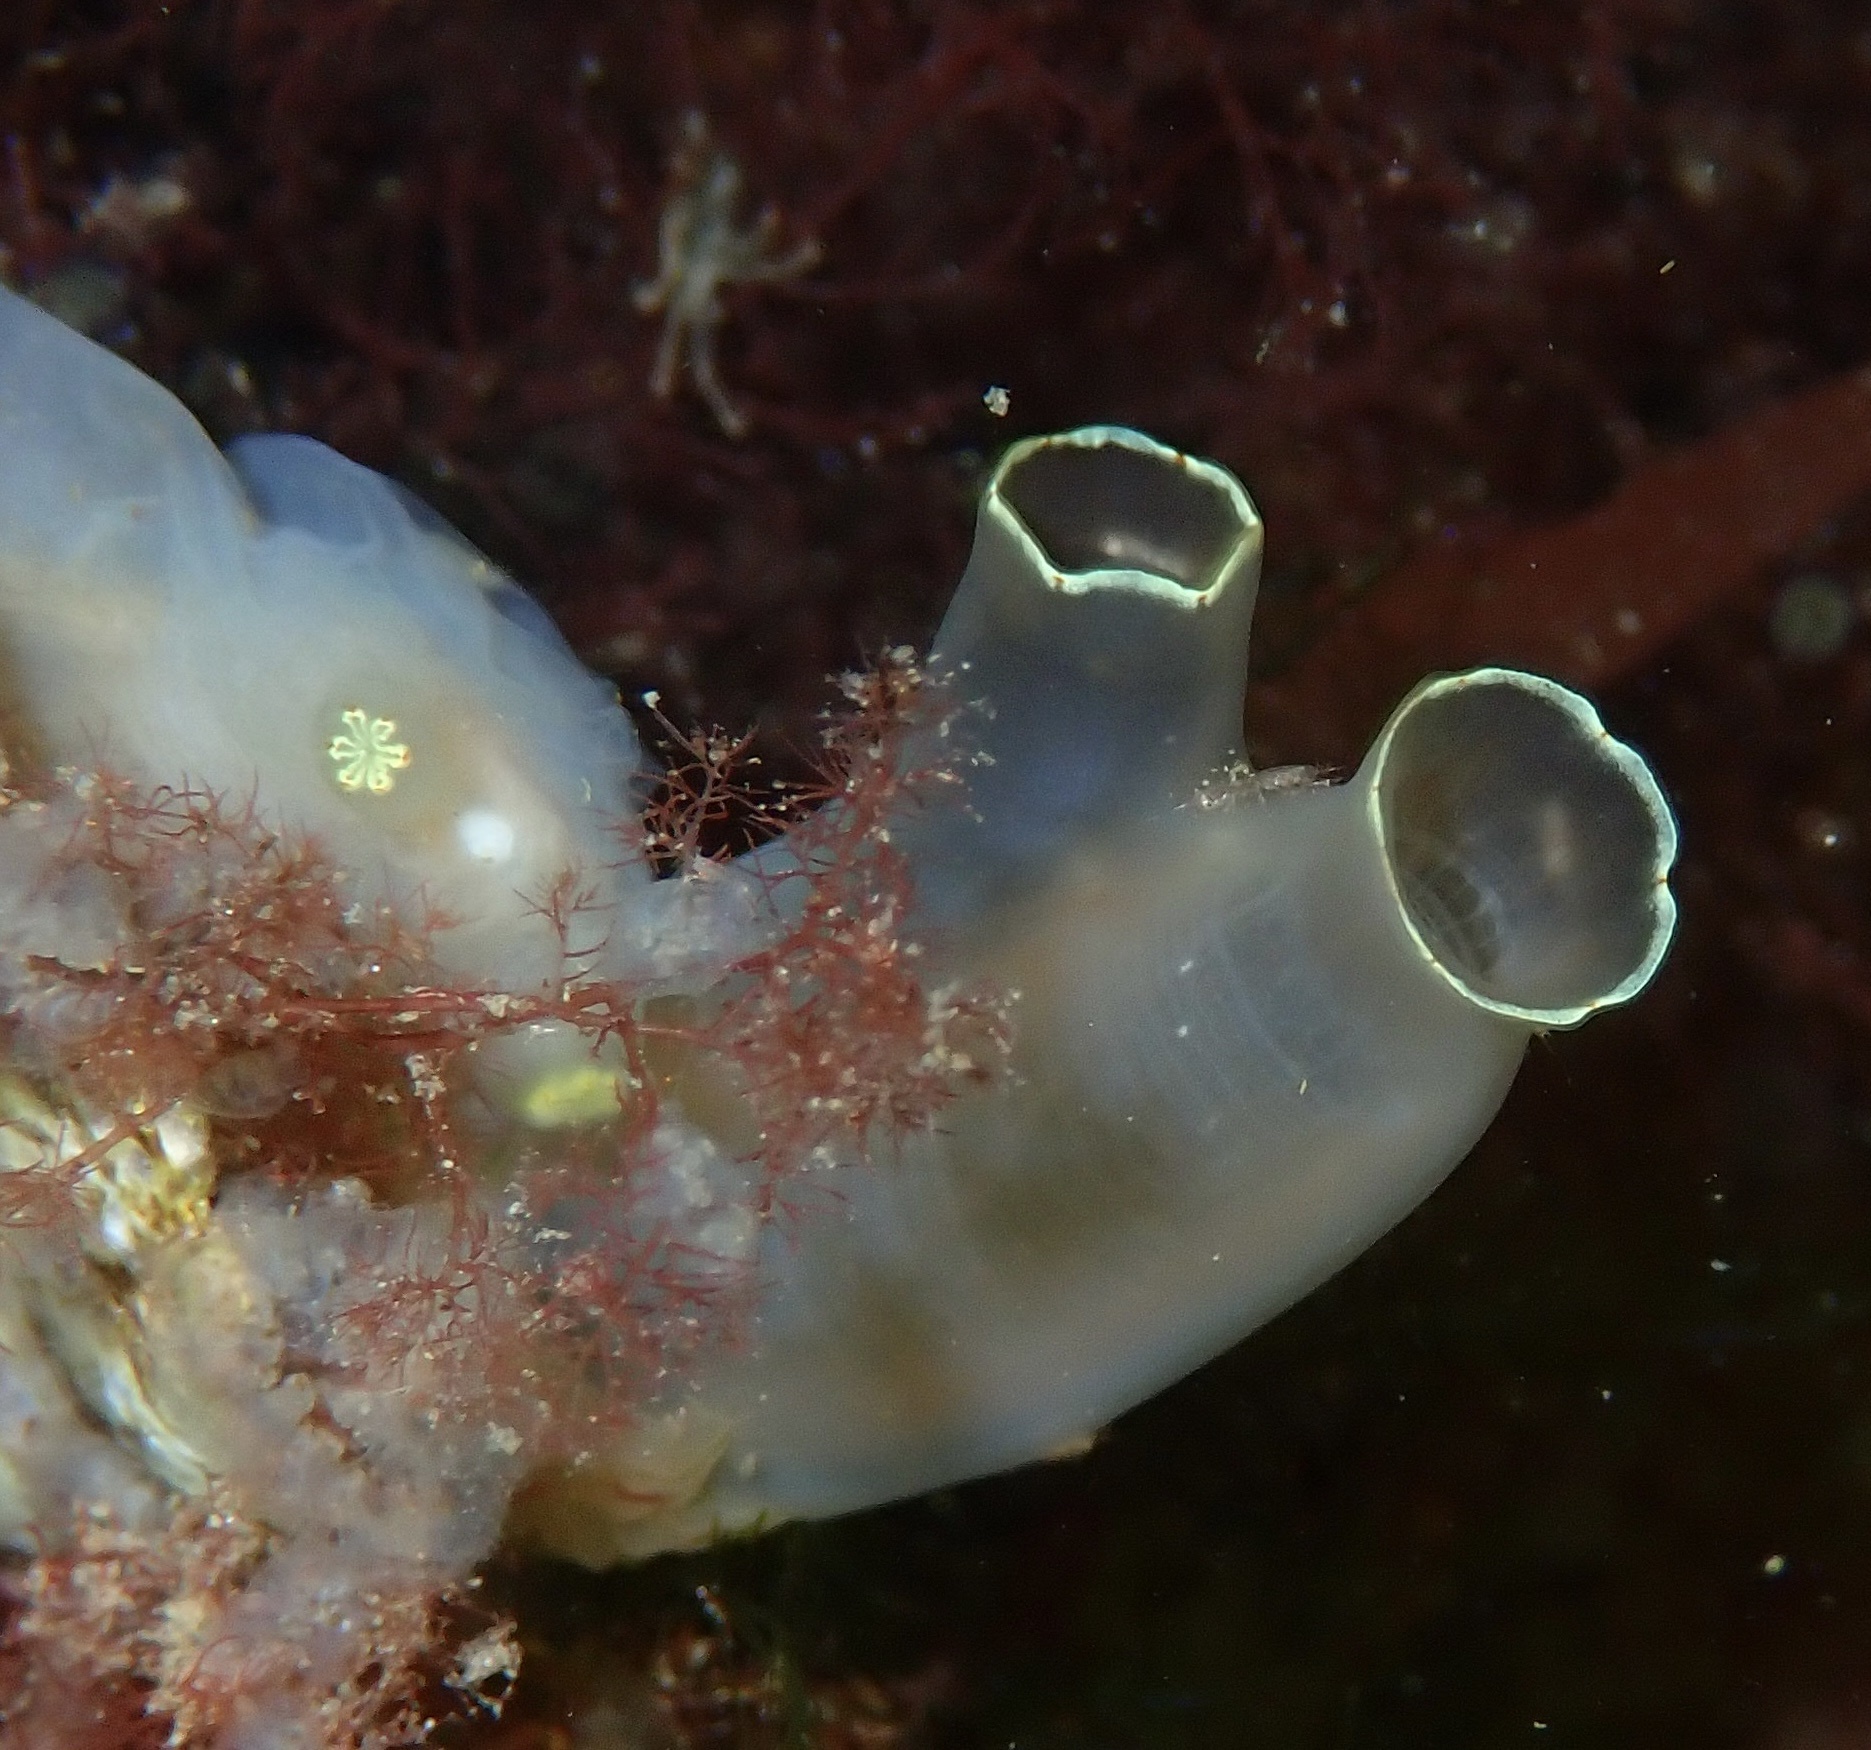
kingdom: Animalia
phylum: Chordata
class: Ascidiacea
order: Phlebobranchia
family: Cionidae
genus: Ciona
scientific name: Ciona intestinalis
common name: Vase tunicate
